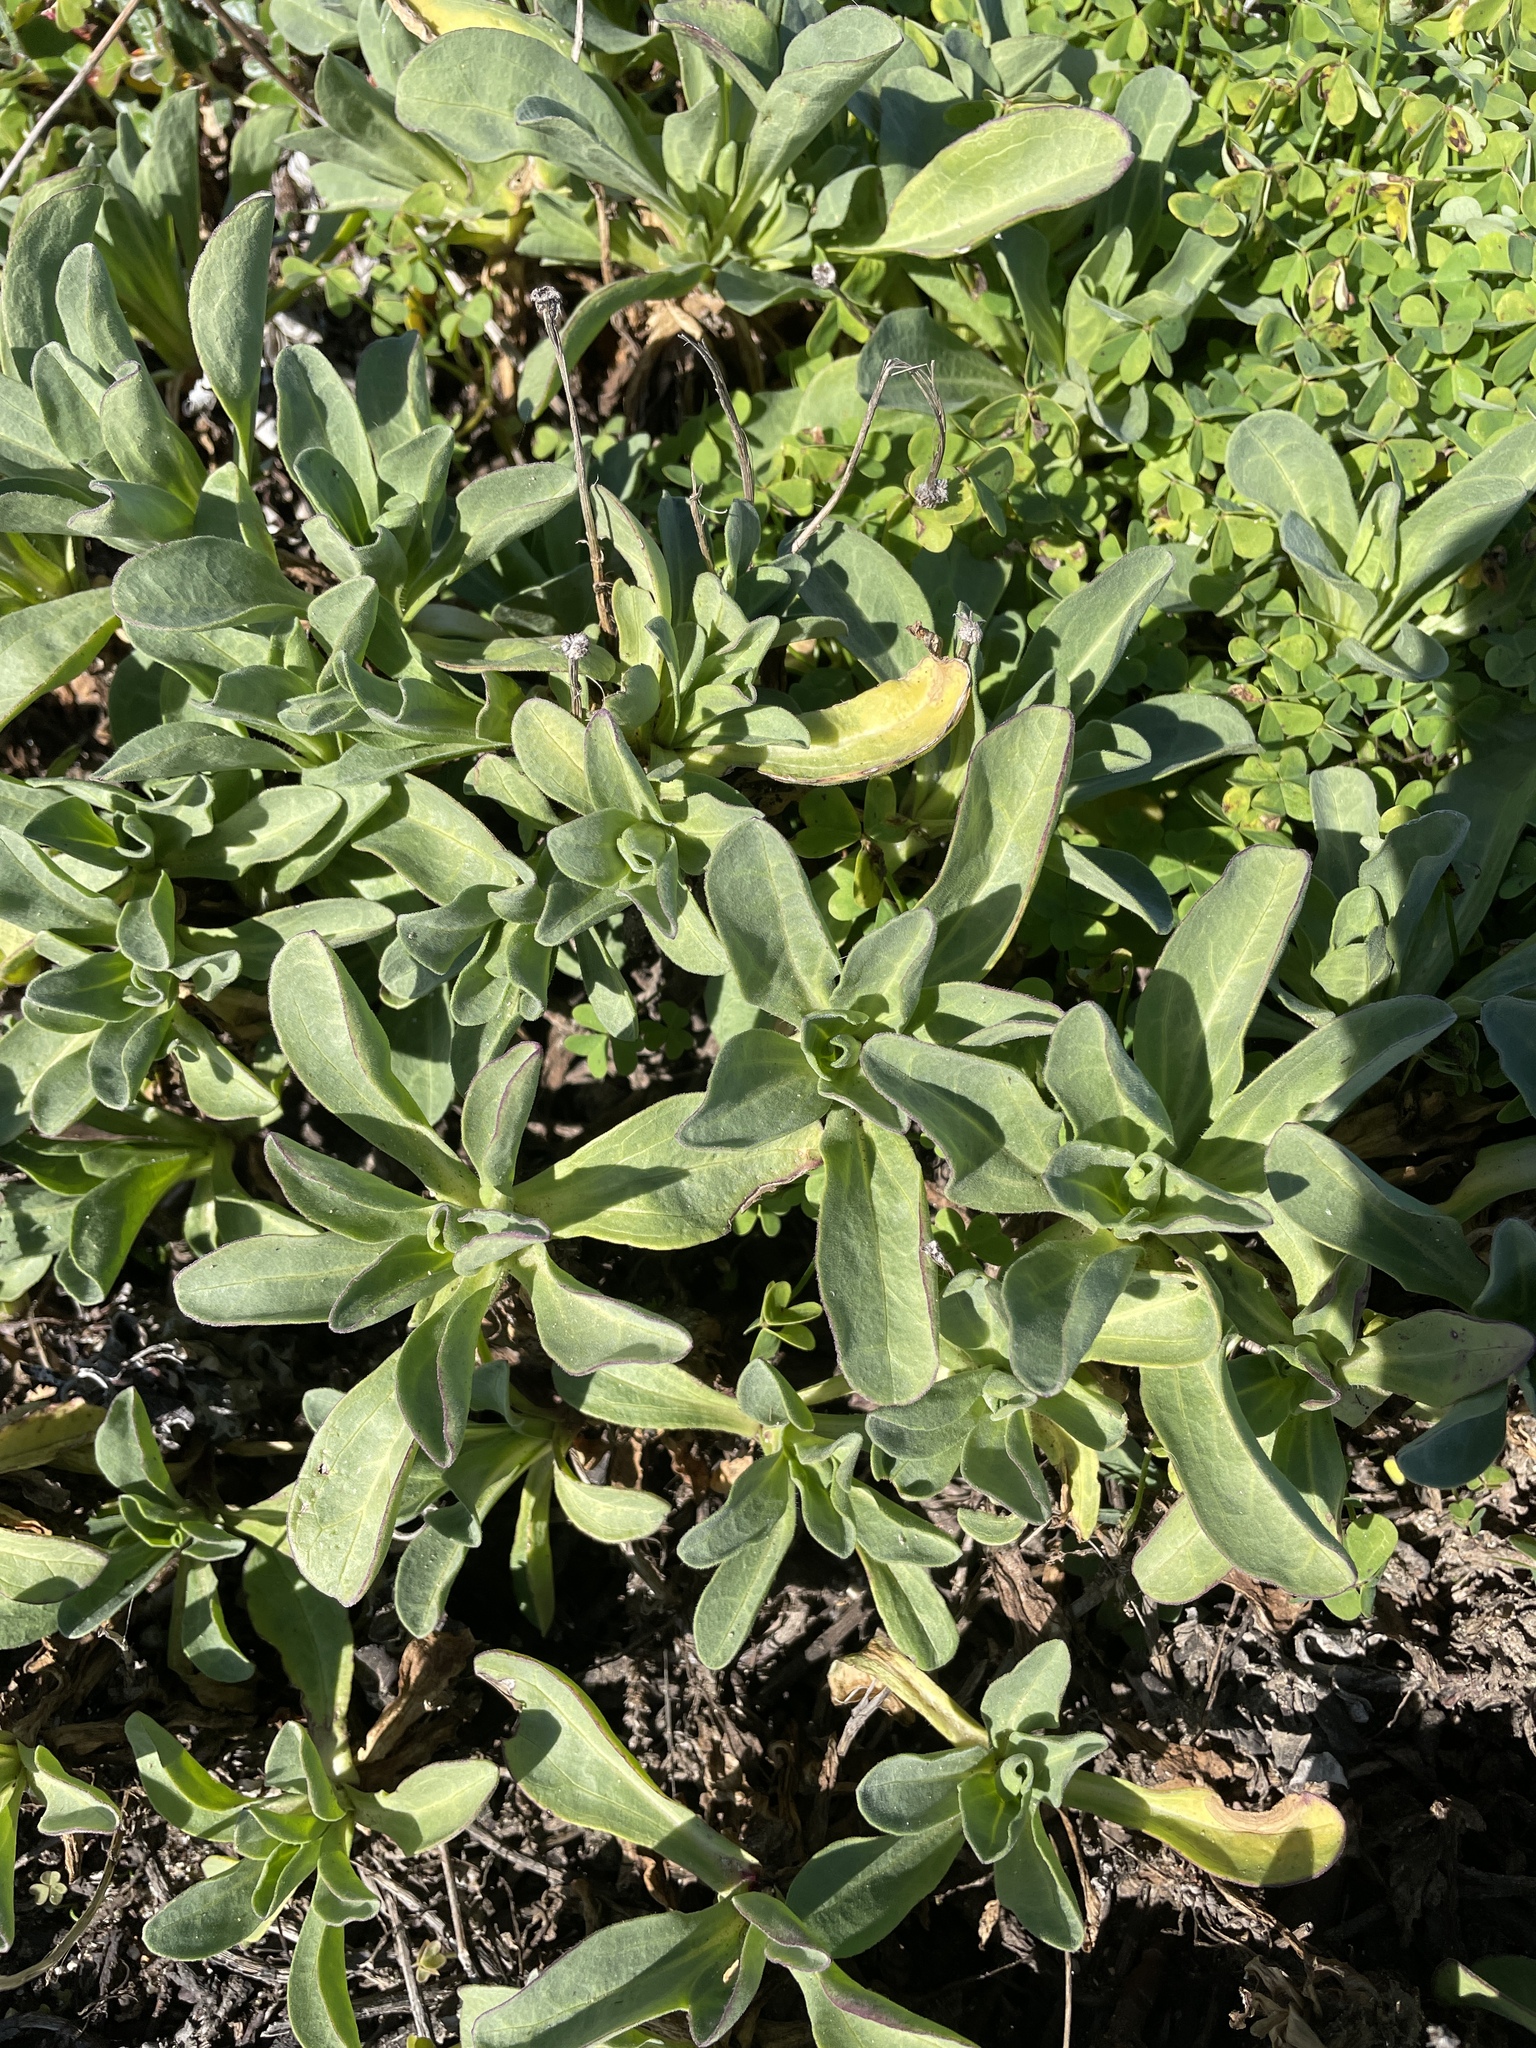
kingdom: Plantae
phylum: Tracheophyta
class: Magnoliopsida
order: Asterales
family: Asteraceae
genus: Erigeron
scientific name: Erigeron glaucus
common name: Seaside daisy
